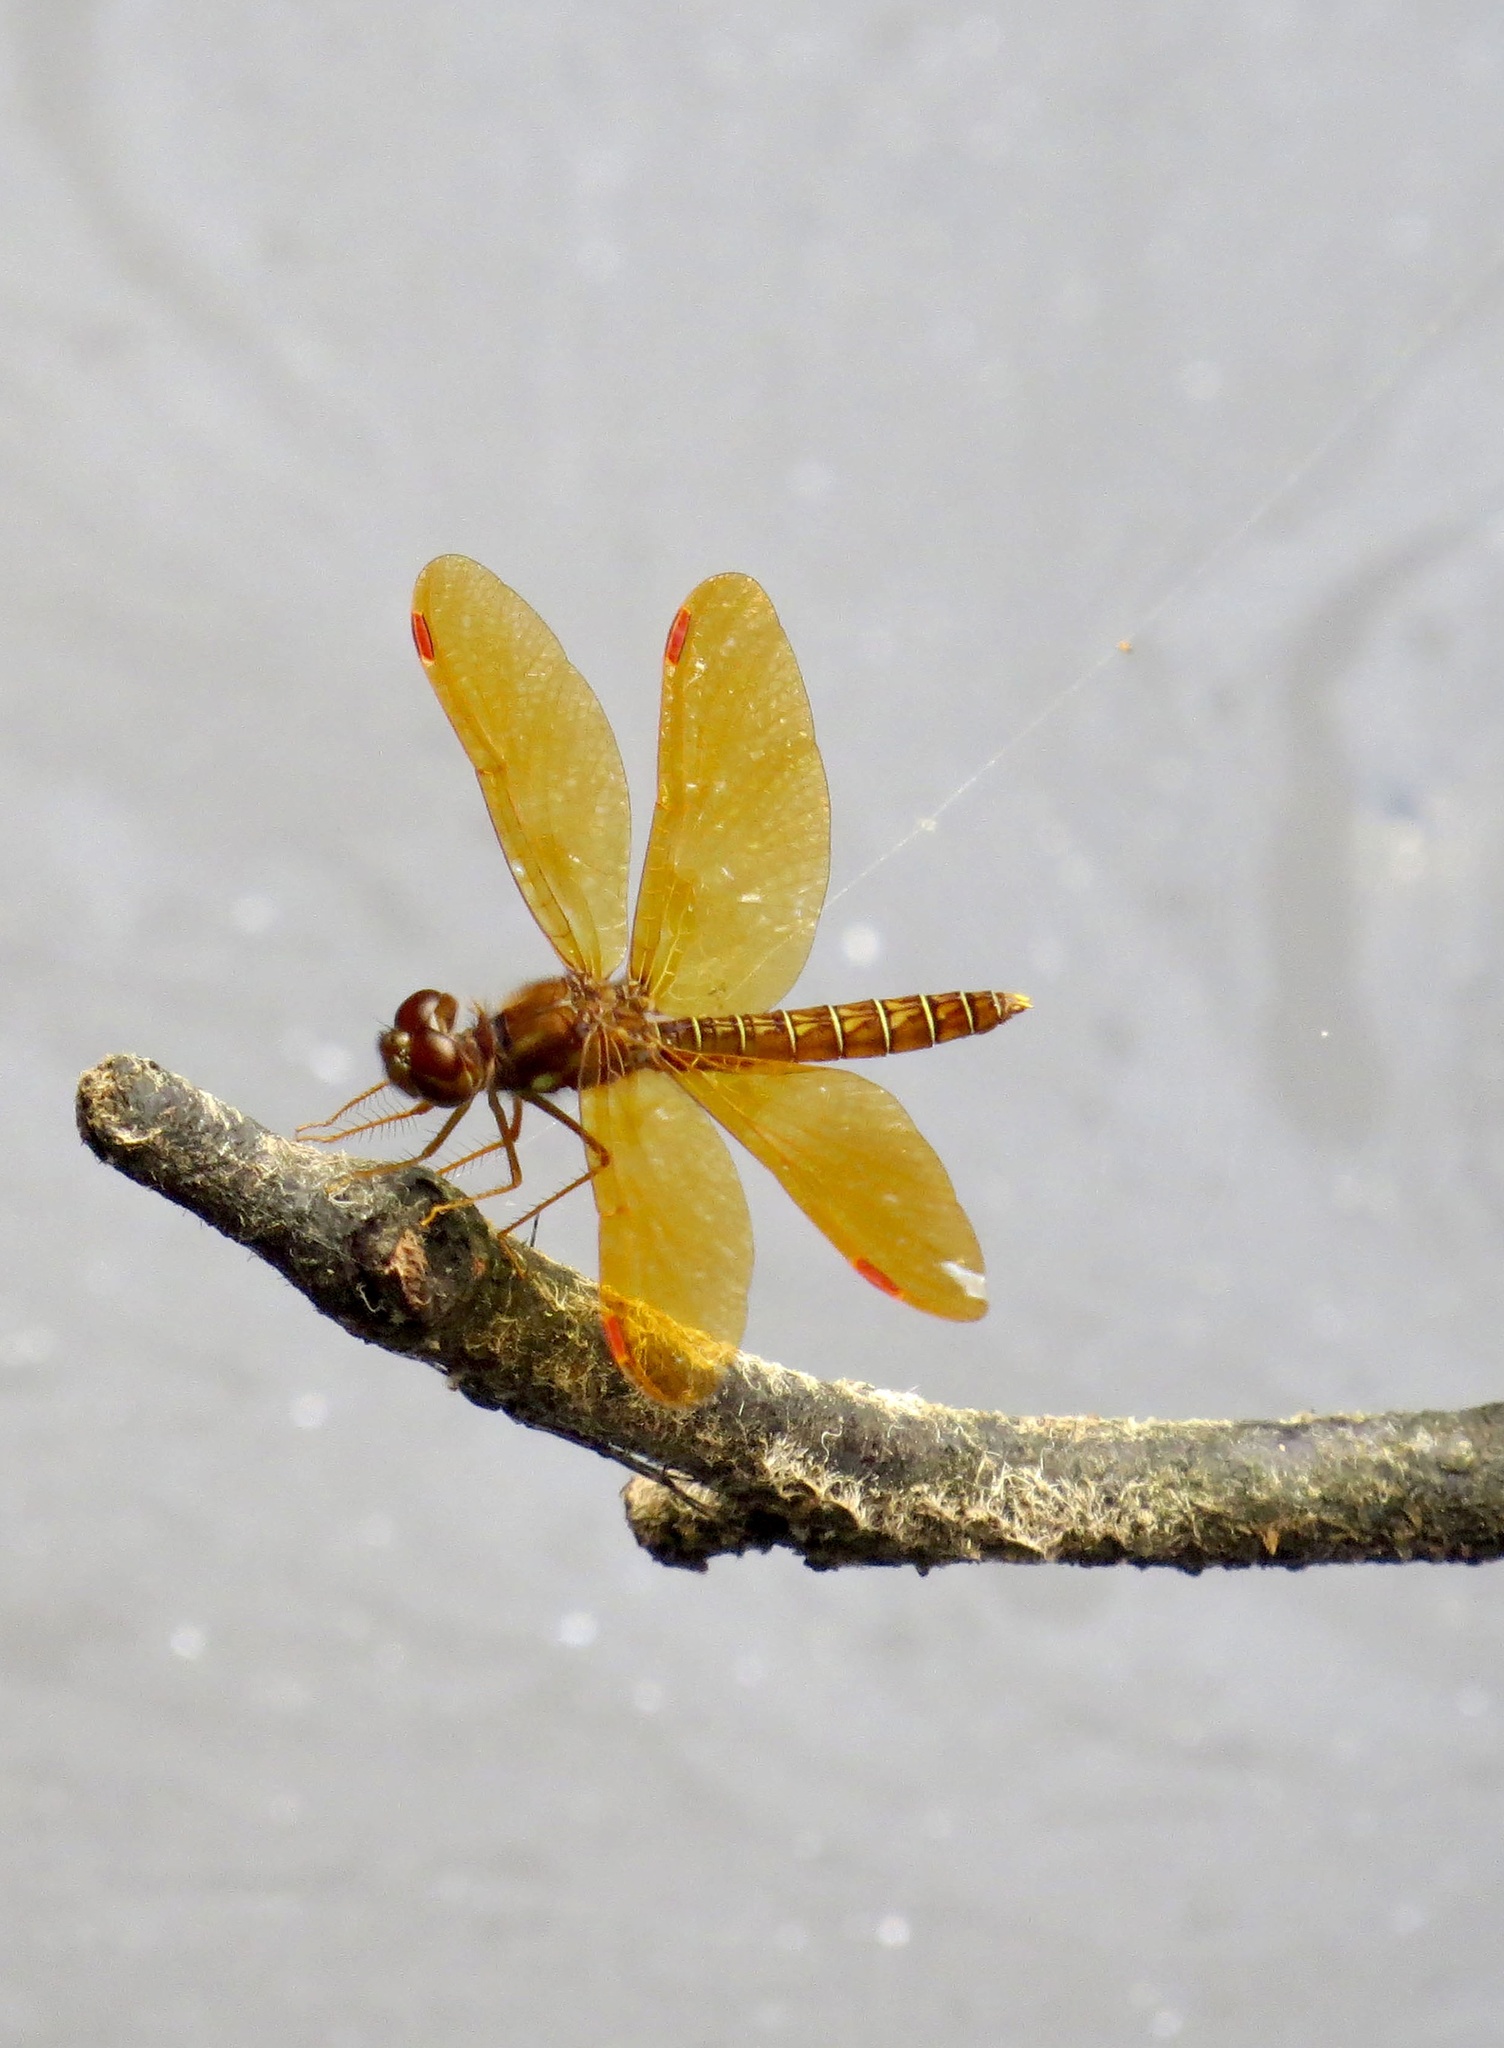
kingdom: Animalia
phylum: Arthropoda
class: Insecta
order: Odonata
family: Libellulidae
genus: Perithemis
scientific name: Perithemis tenera
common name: Eastern amberwing
